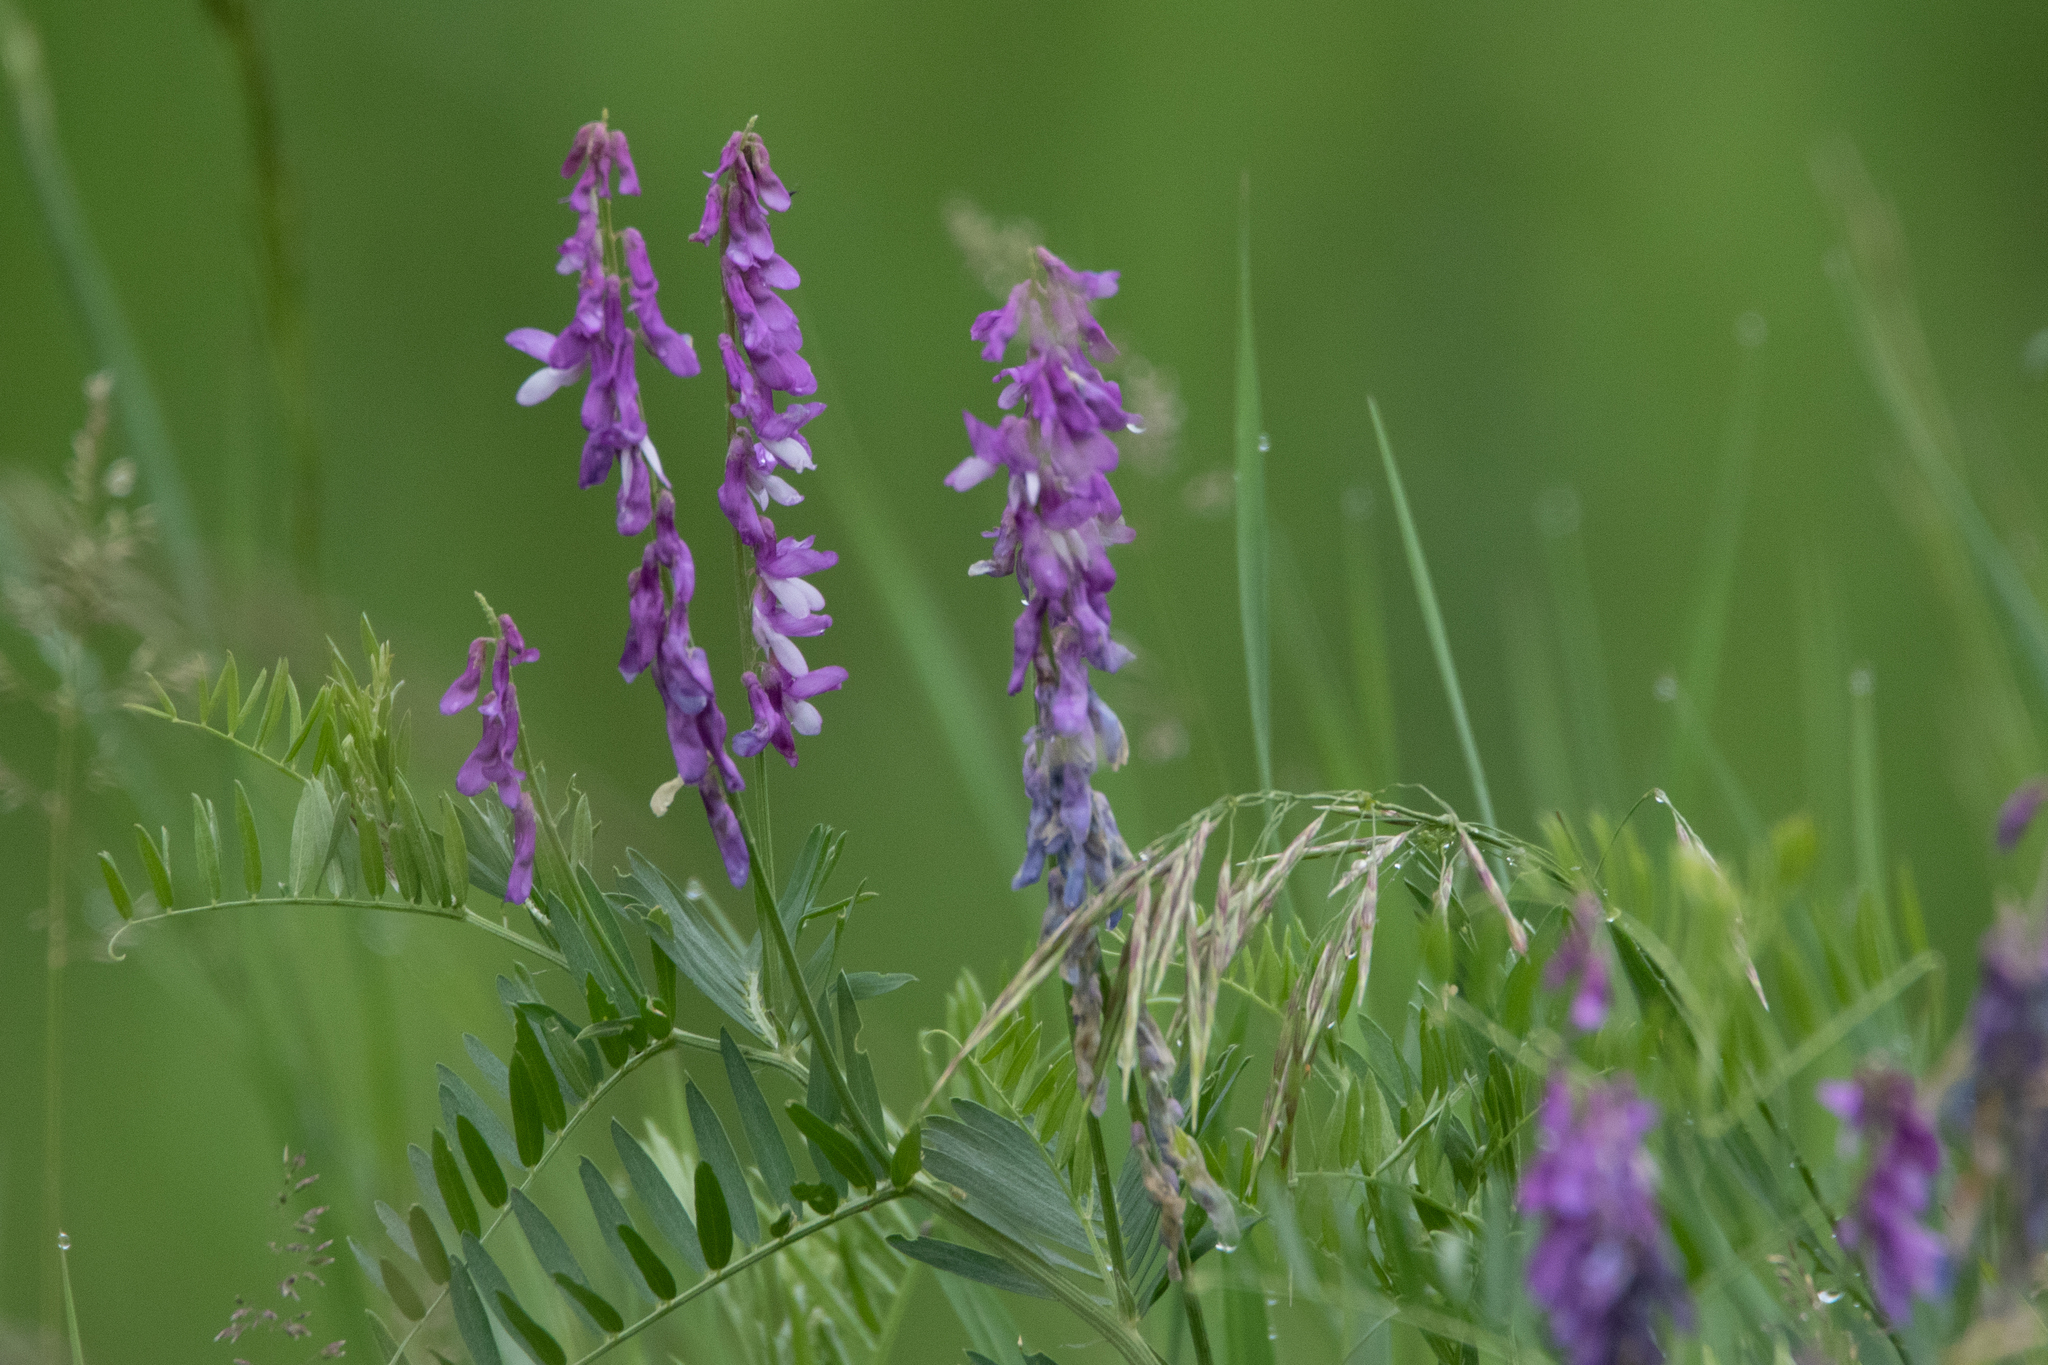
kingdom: Plantae
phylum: Tracheophyta
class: Magnoliopsida
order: Fabales
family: Fabaceae
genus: Vicia
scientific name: Vicia tenuifolia
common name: Fine-leaved vetch
